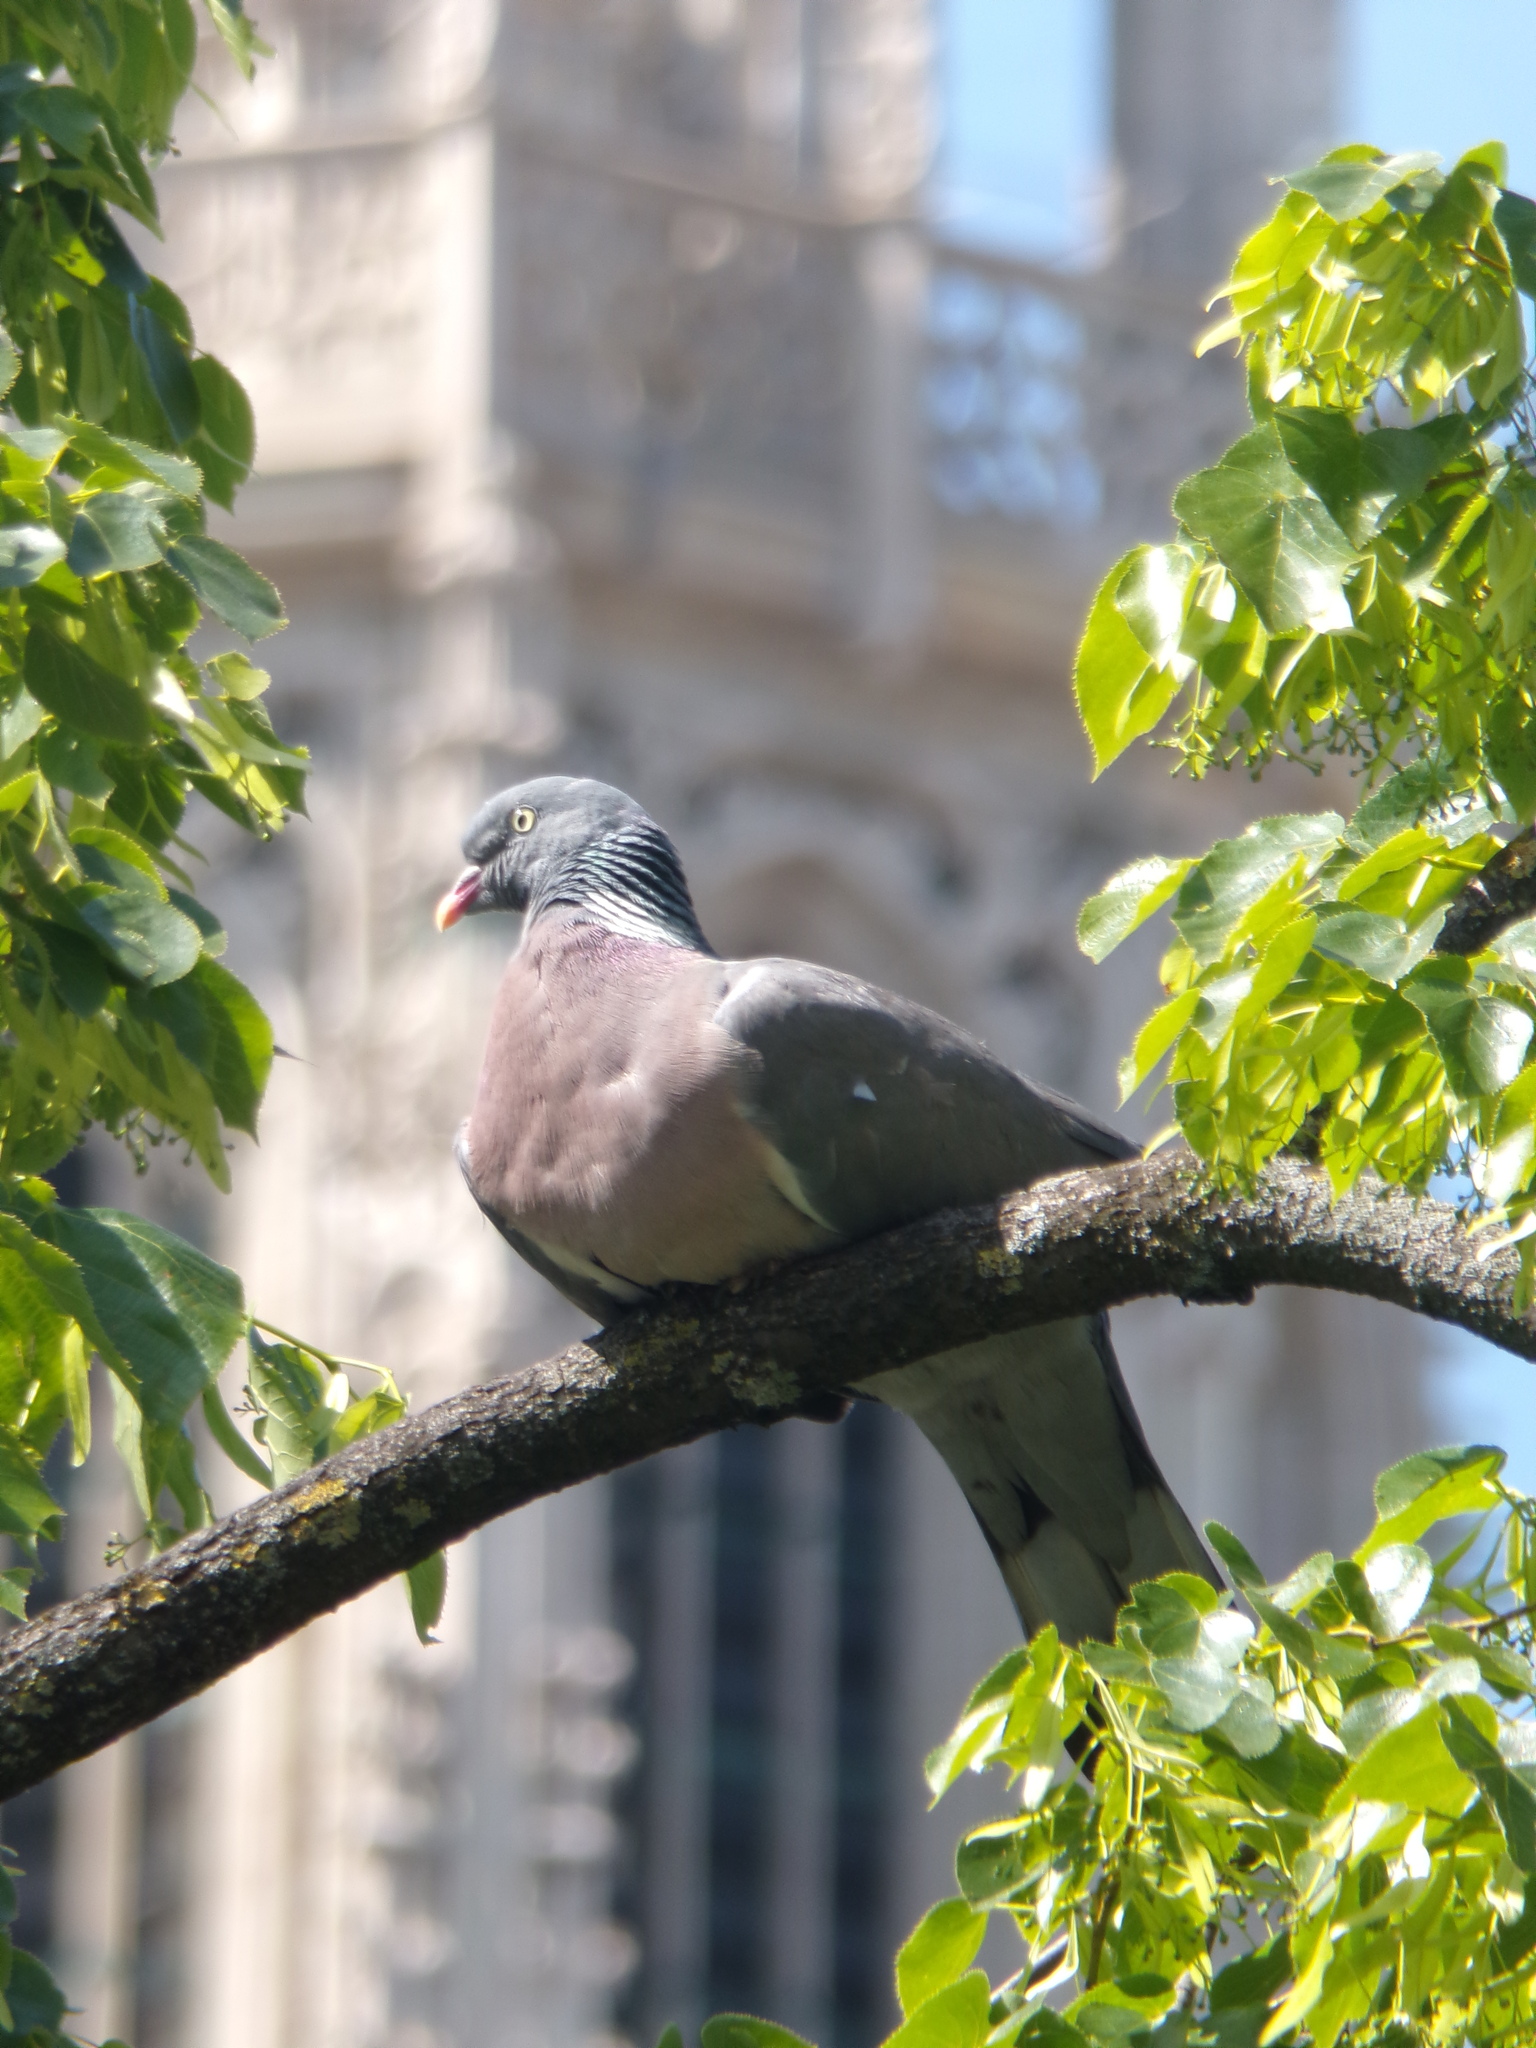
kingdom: Animalia
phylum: Chordata
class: Aves
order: Columbiformes
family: Columbidae
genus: Columba
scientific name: Columba palumbus
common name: Common wood pigeon
